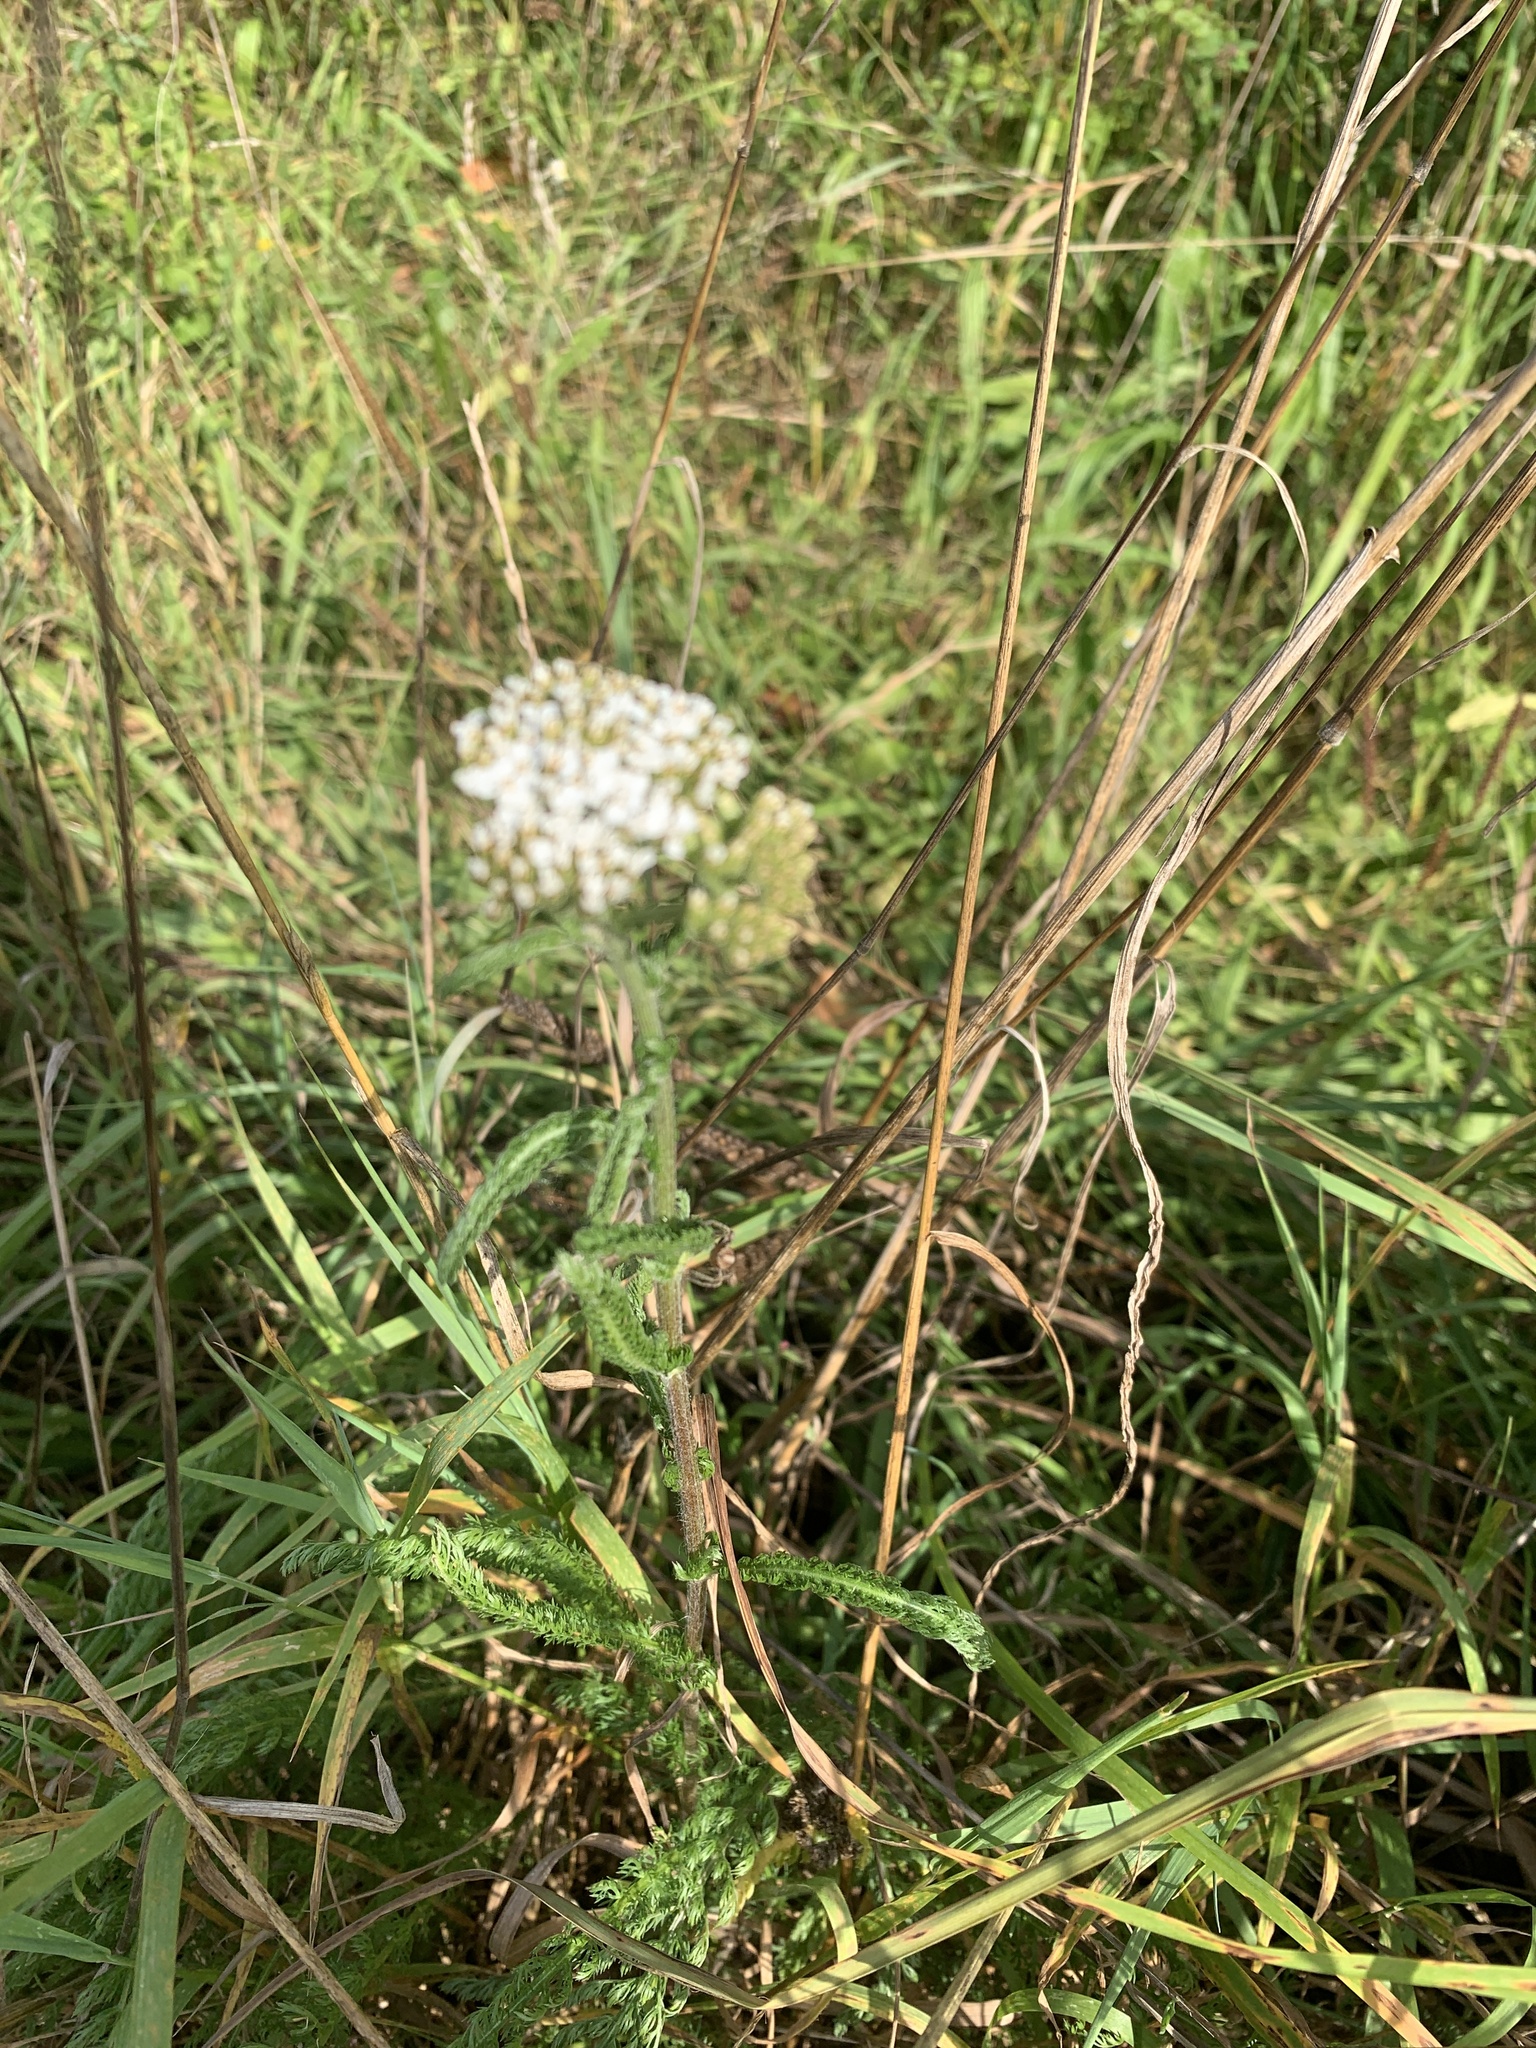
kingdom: Plantae
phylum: Tracheophyta
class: Magnoliopsida
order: Asterales
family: Asteraceae
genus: Achillea
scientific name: Achillea millefolium
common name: Yarrow
